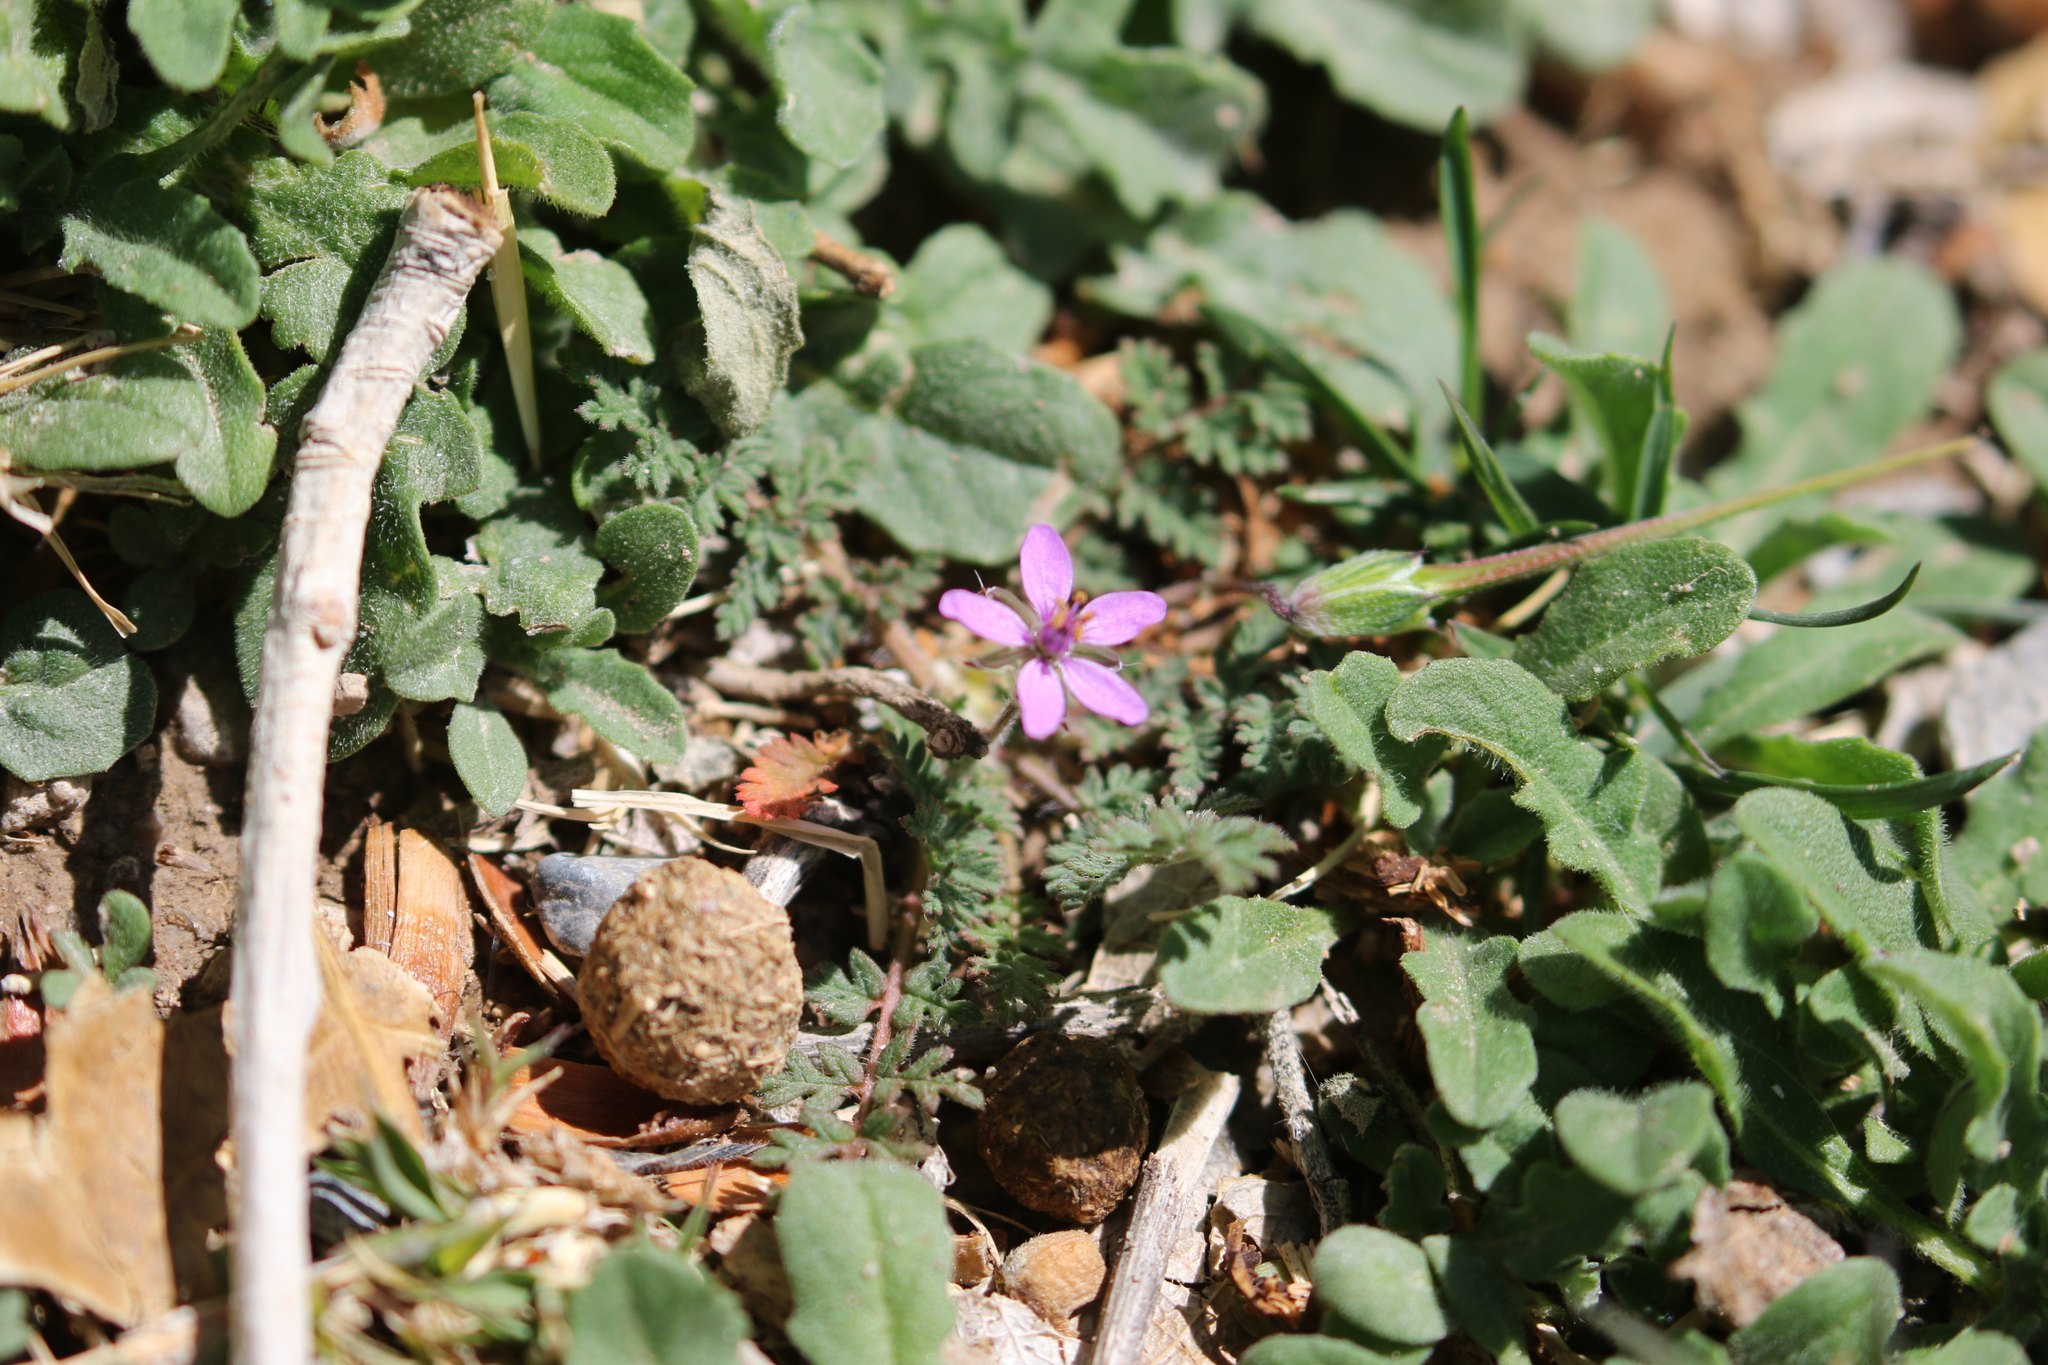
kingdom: Plantae
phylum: Tracheophyta
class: Magnoliopsida
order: Geraniales
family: Geraniaceae
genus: Erodium
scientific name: Erodium cicutarium
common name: Common stork's-bill
